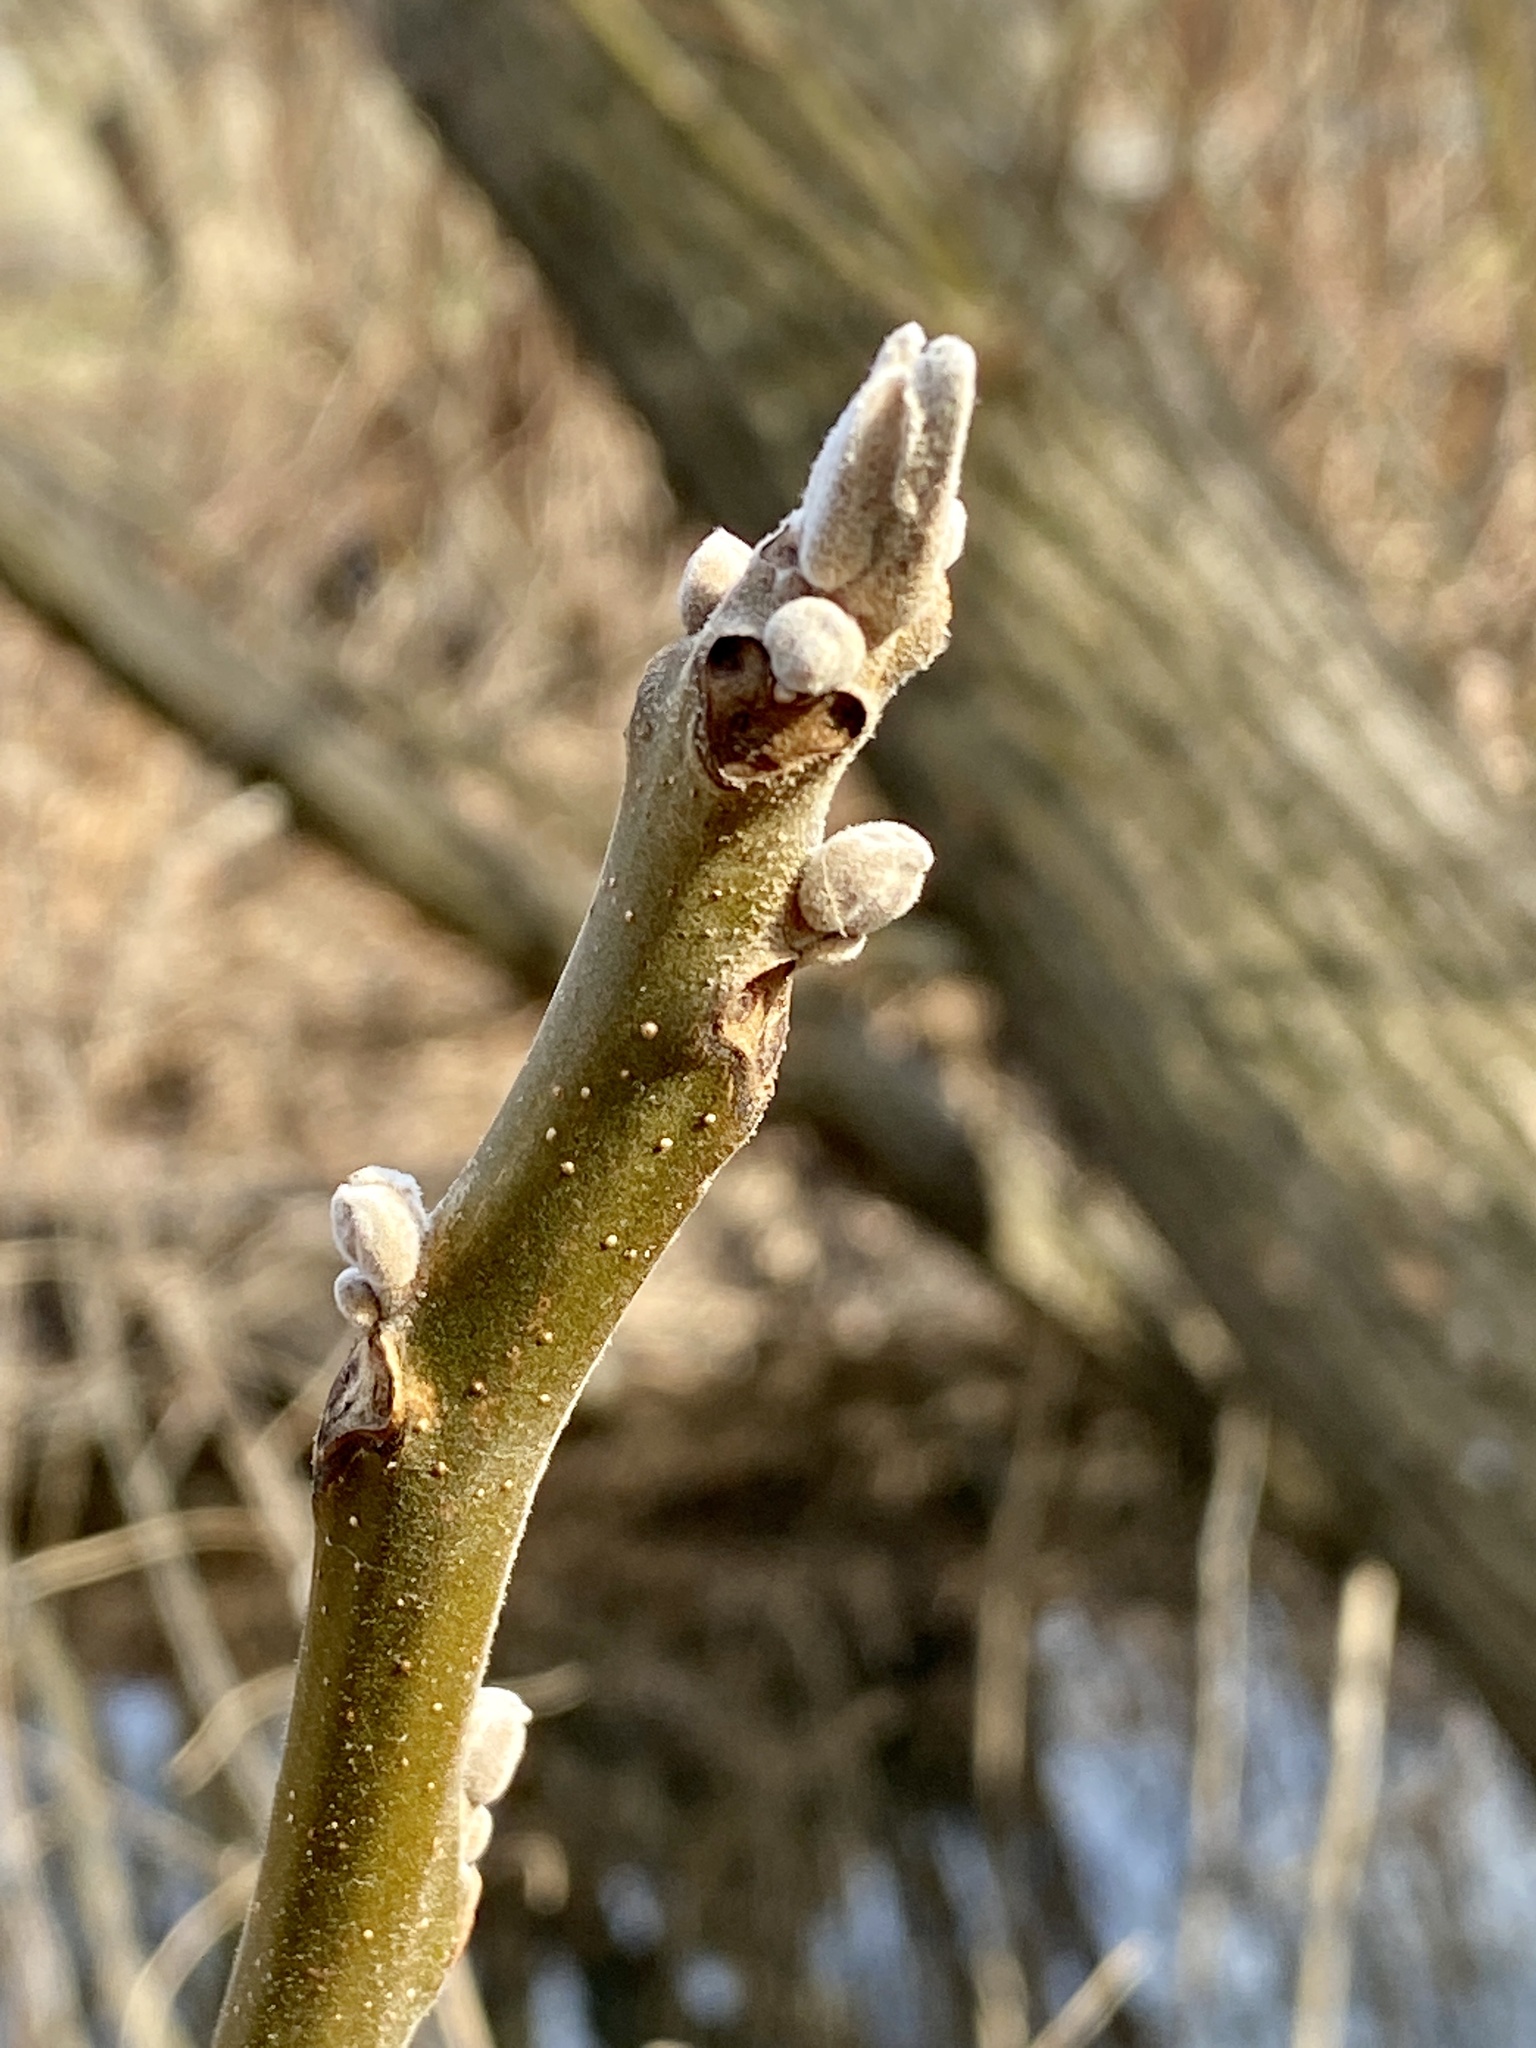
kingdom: Plantae
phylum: Tracheophyta
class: Magnoliopsida
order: Fagales
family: Juglandaceae
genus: Juglans
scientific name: Juglans nigra
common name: Black walnut
